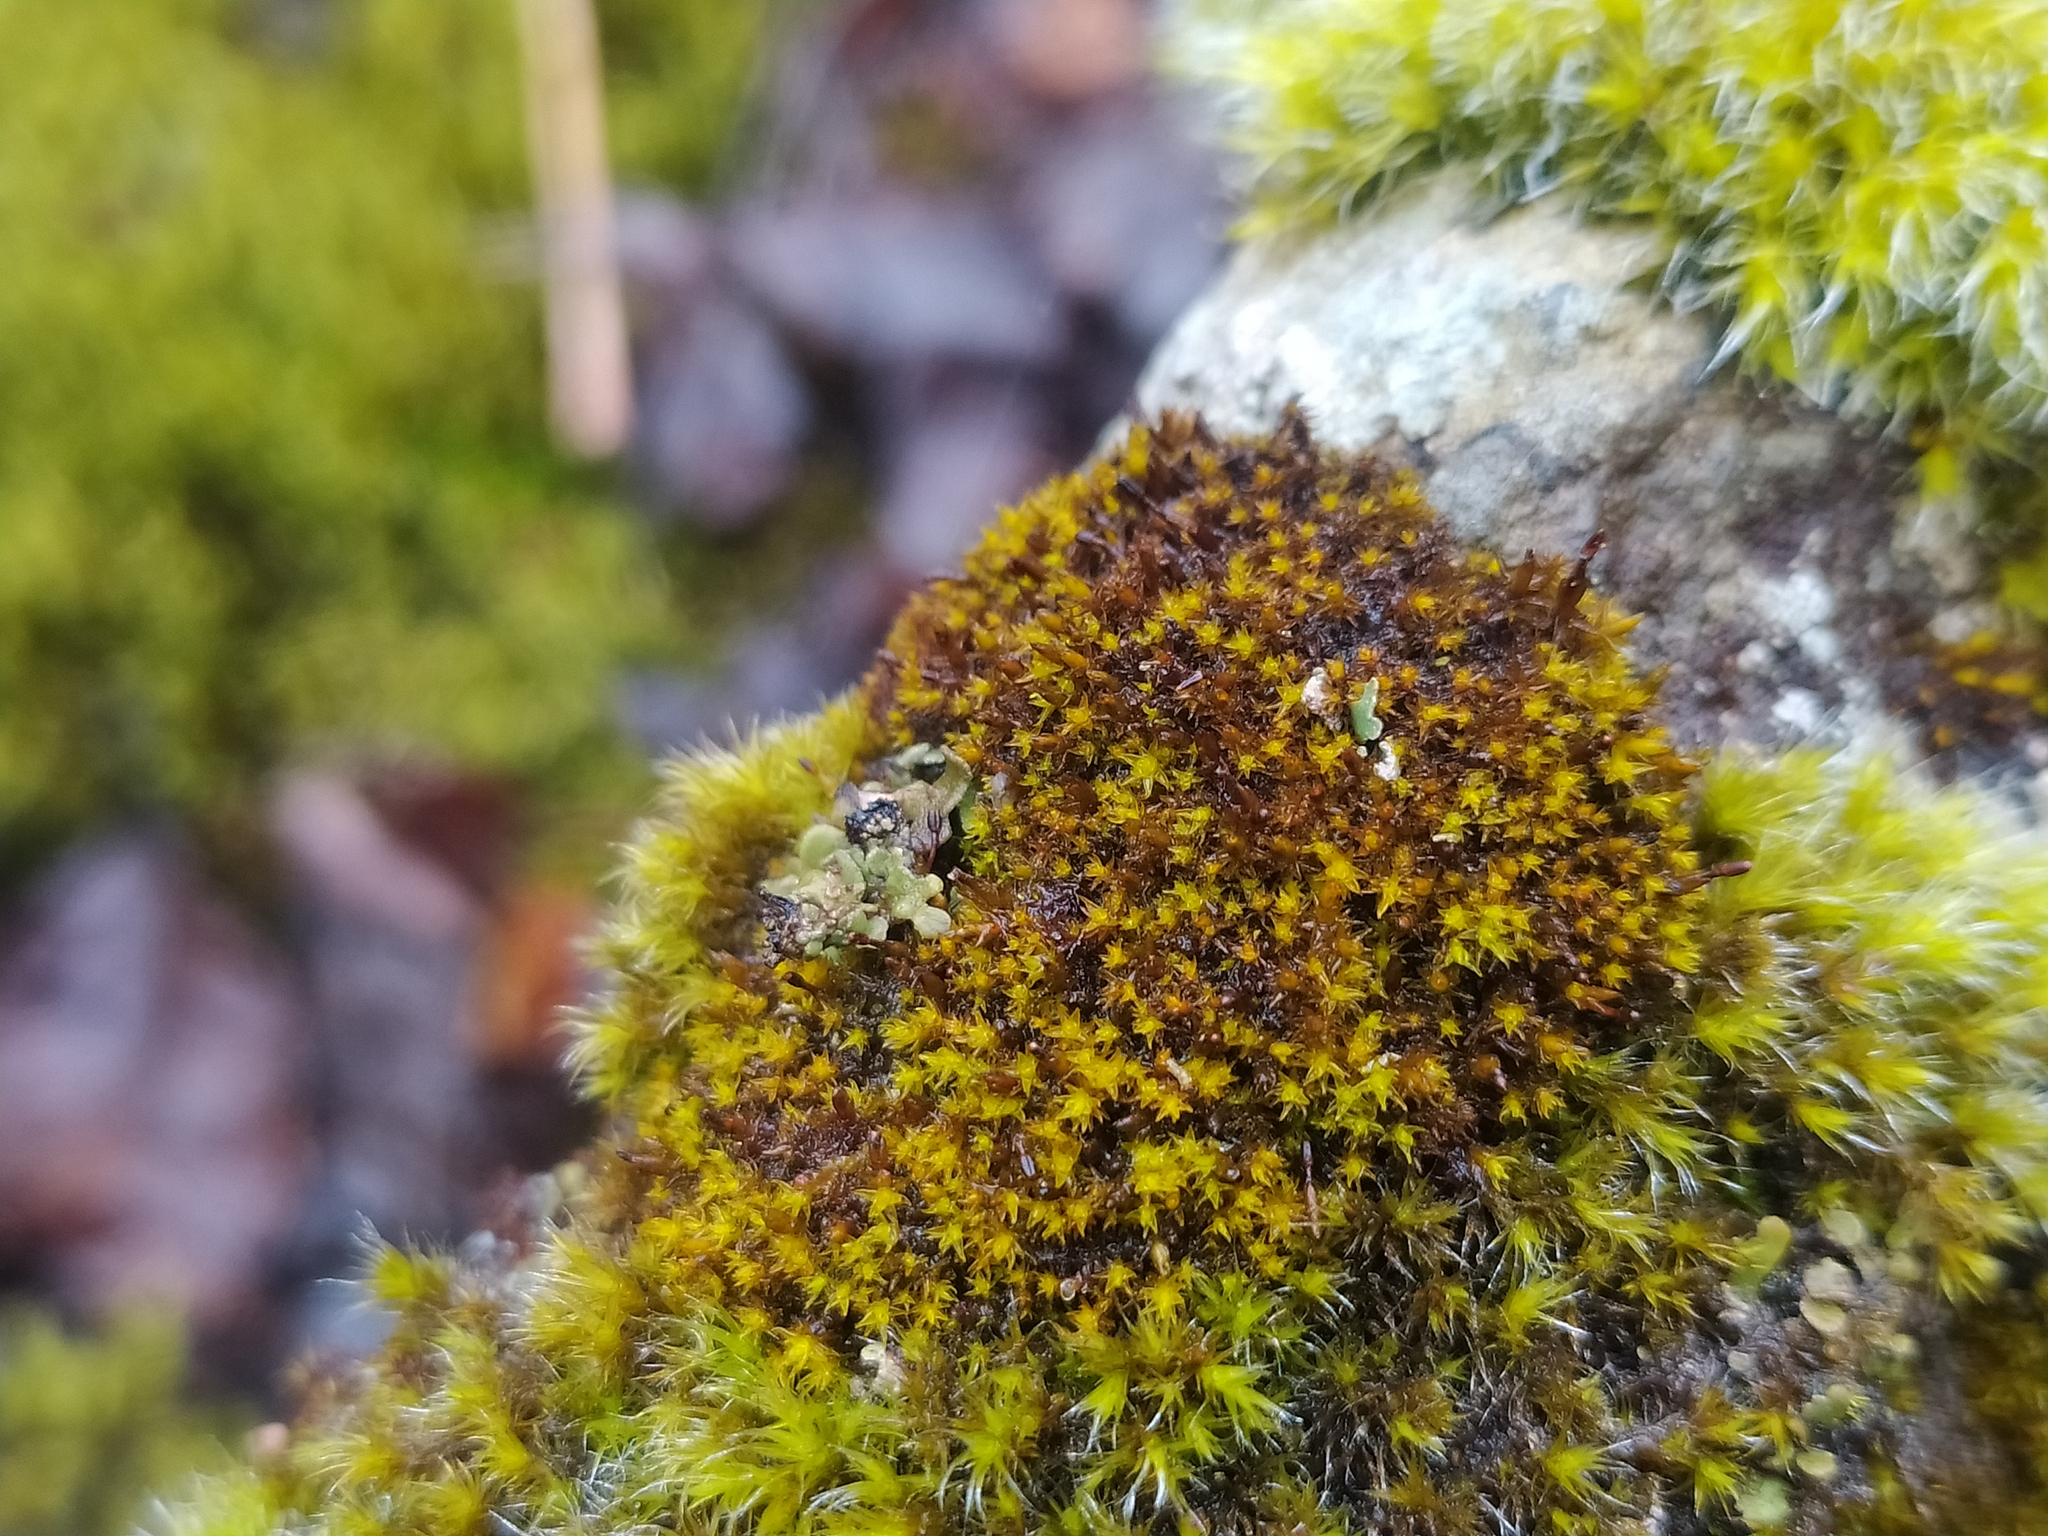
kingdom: Plantae
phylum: Bryophyta
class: Andreaeopsida
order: Andreaeales
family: Andreaeaceae
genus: Andreaea
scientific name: Andreaea rupestris
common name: Black rock moss
